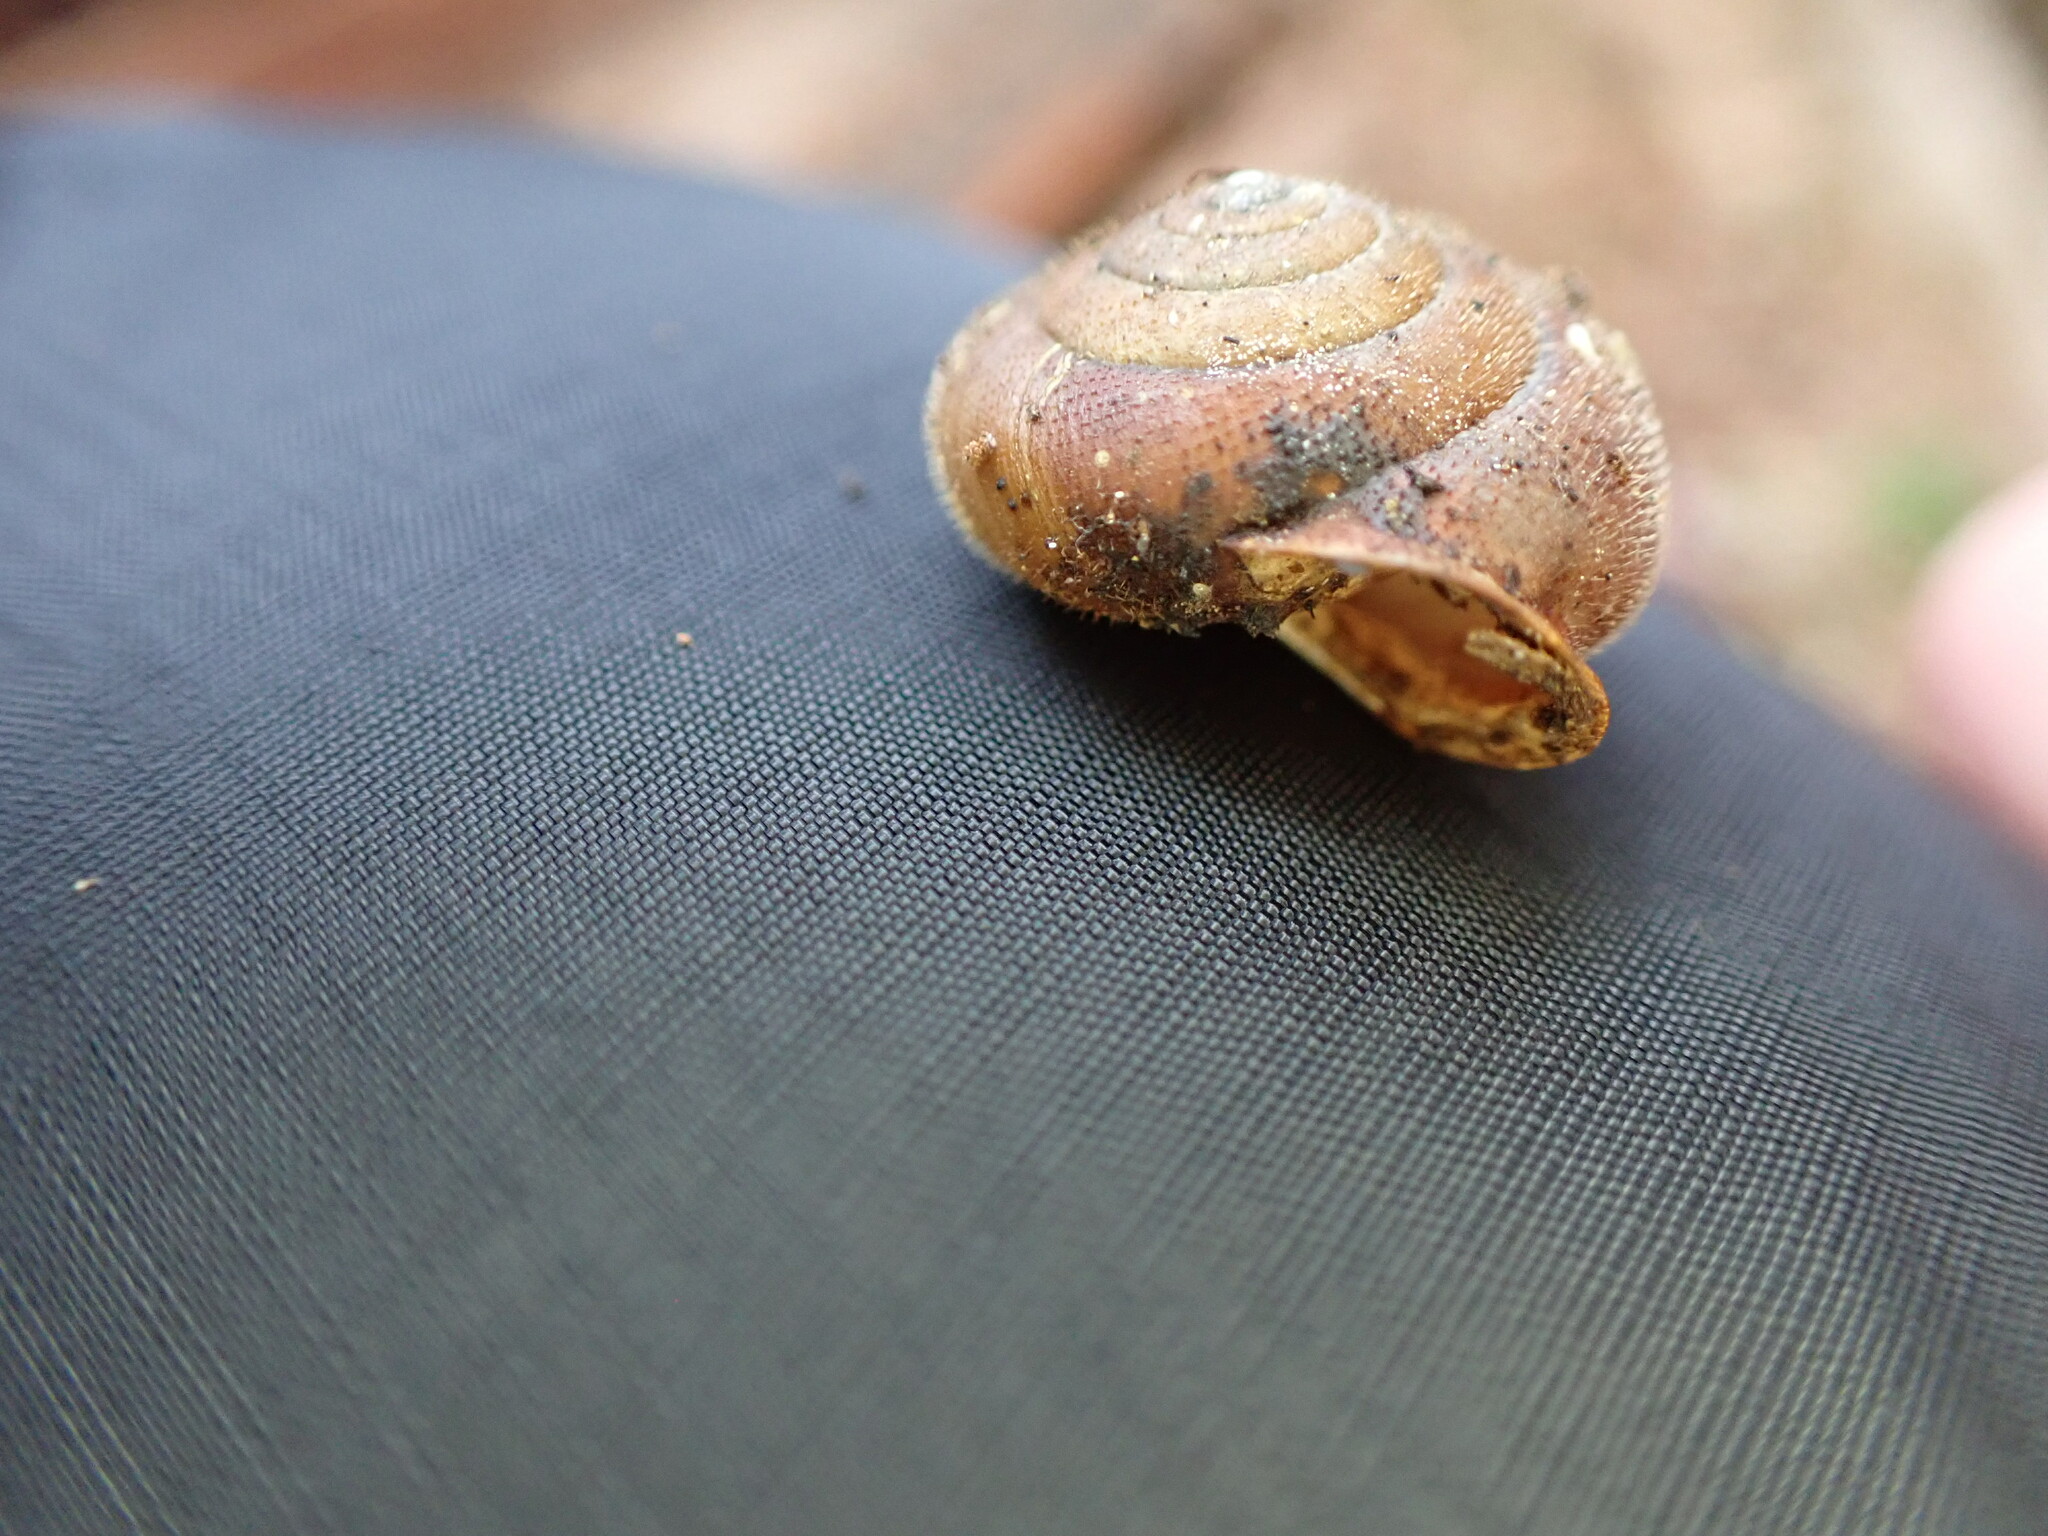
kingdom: Animalia
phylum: Mollusca
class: Gastropoda
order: Stylommatophora
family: Polygyridae
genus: Vespericola
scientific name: Vespericola columbianus
